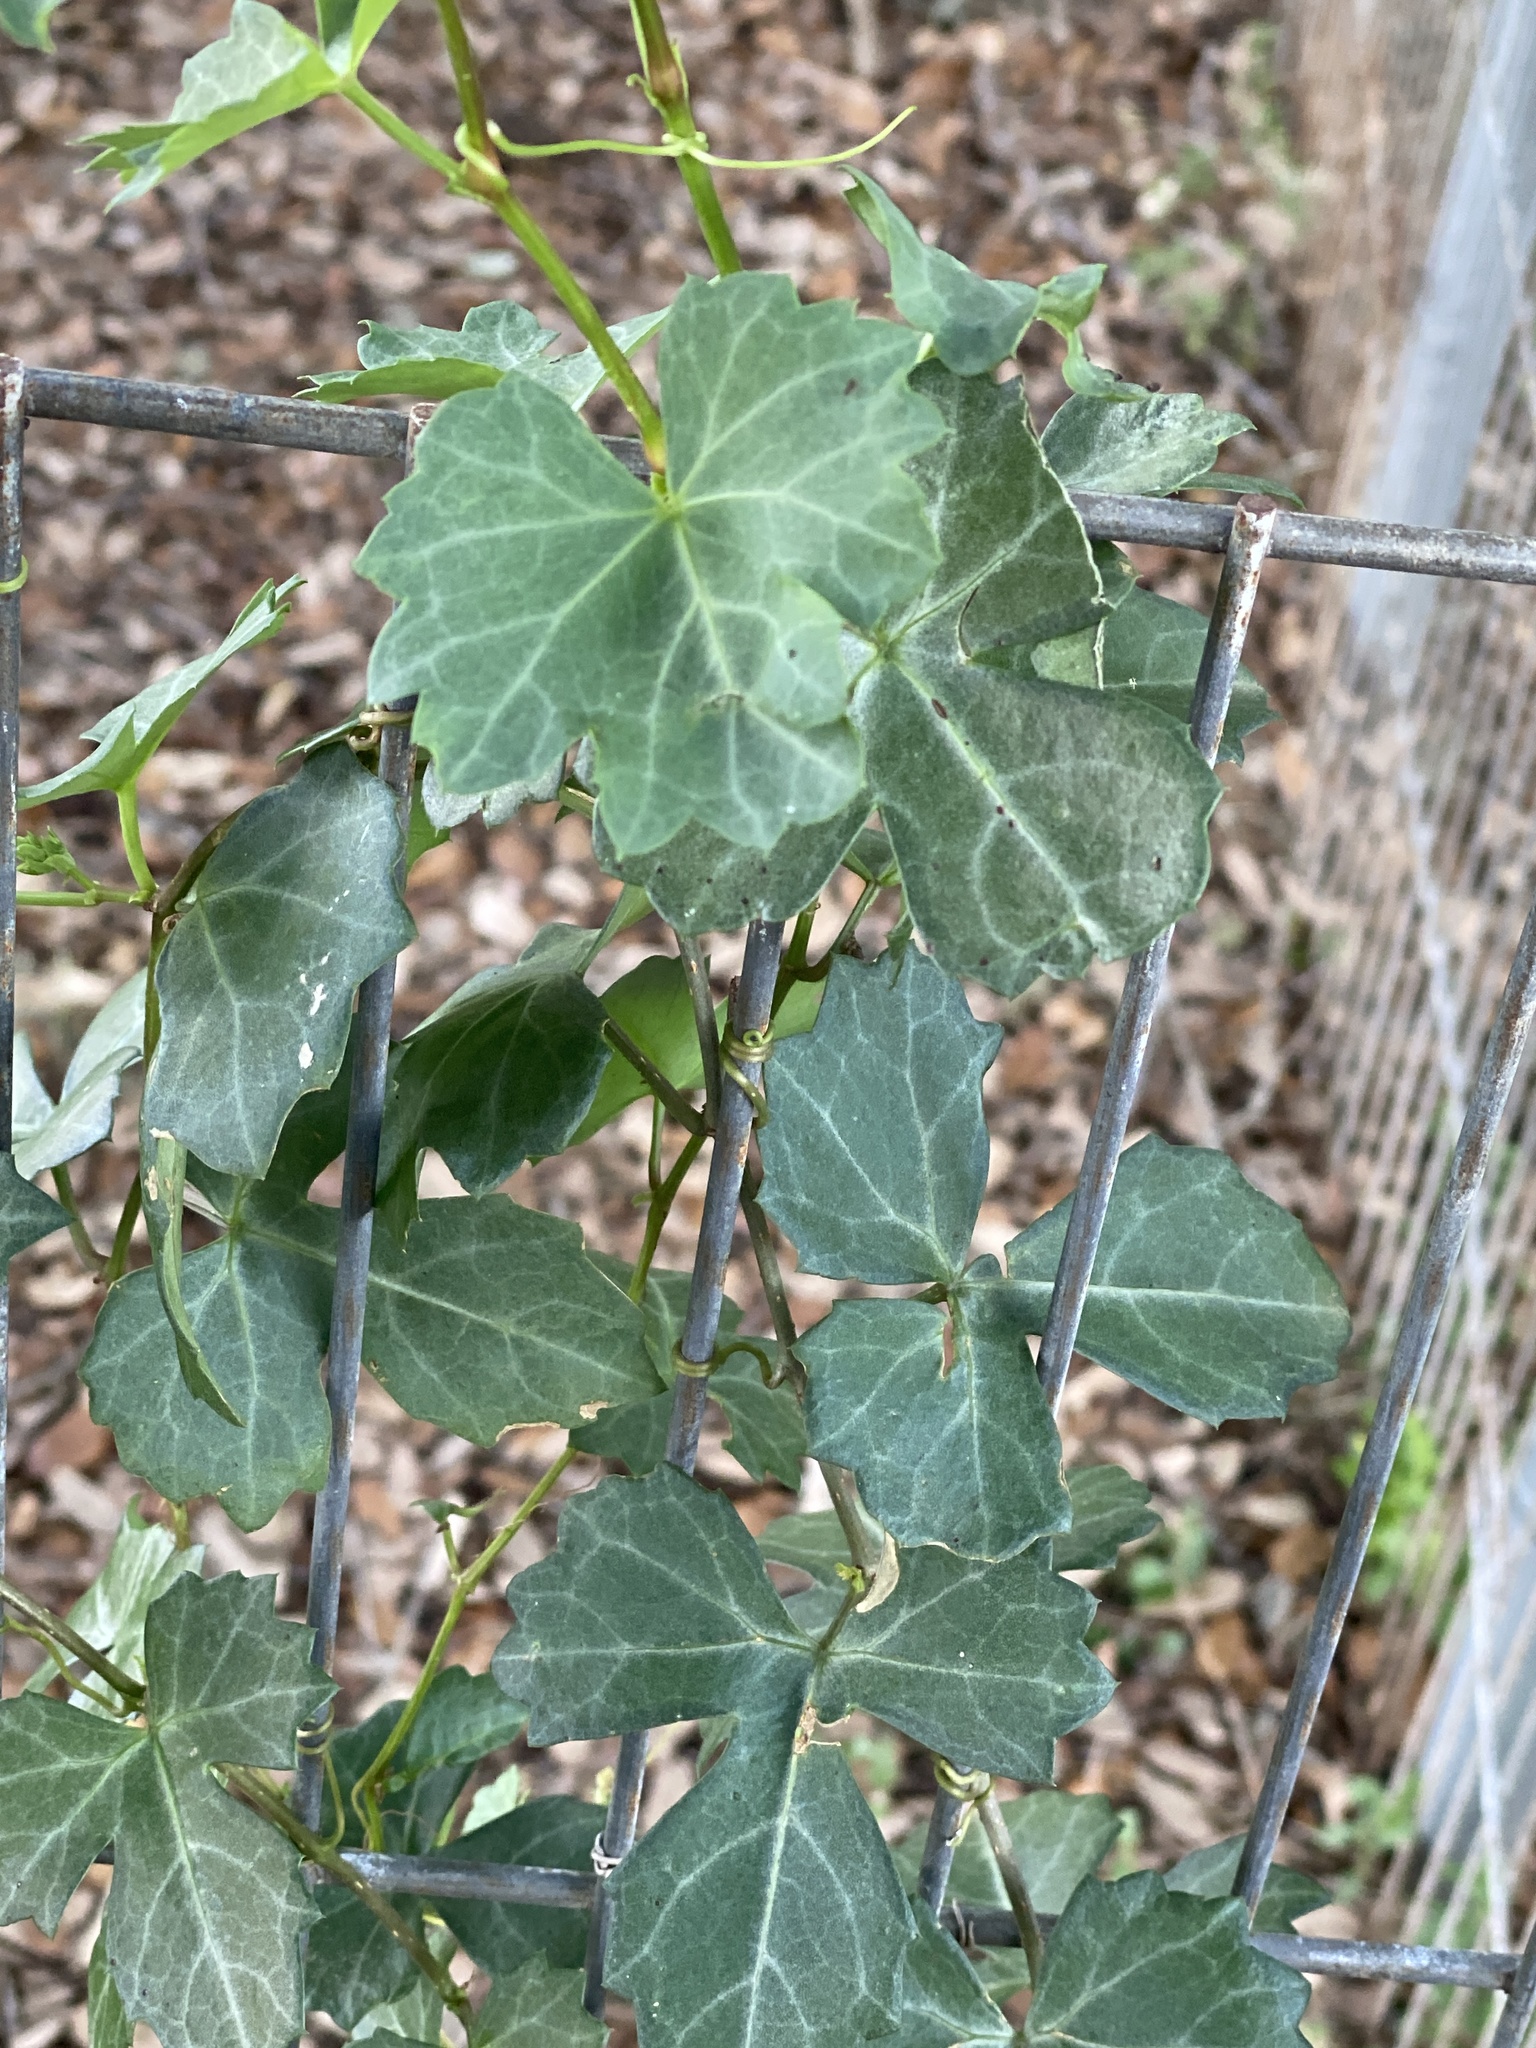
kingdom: Plantae
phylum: Tracheophyta
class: Magnoliopsida
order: Vitales
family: Vitaceae
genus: Cissus
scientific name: Cissus trifoliata
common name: Vine-sorrel
